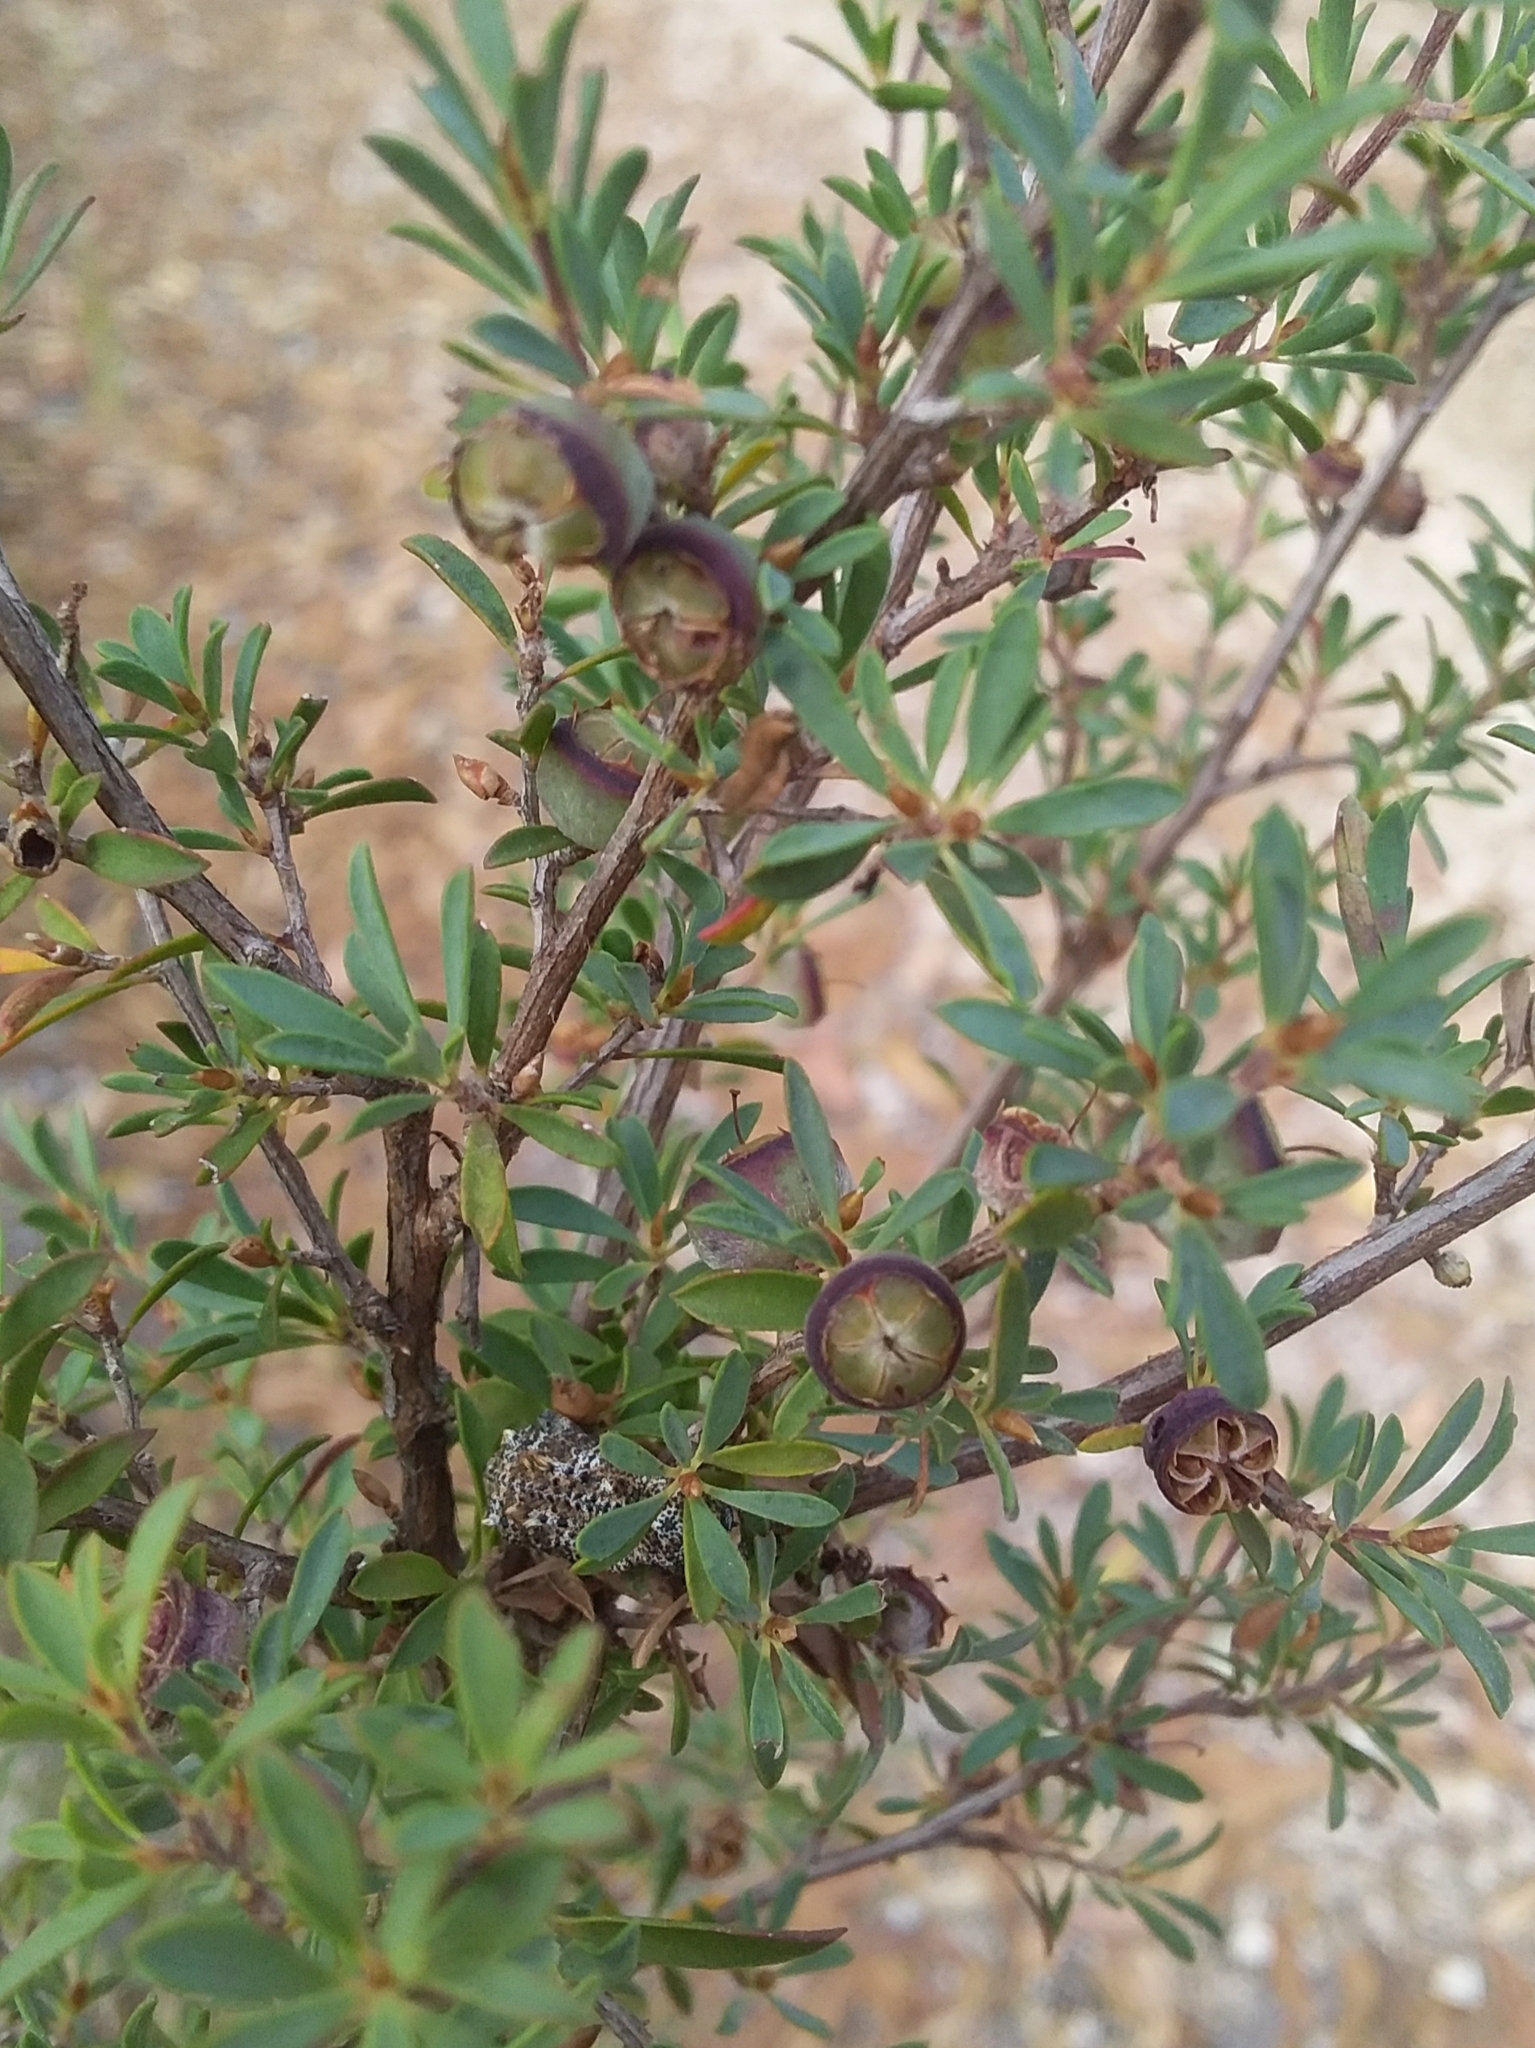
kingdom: Plantae
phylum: Tracheophyta
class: Magnoliopsida
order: Myrtales
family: Myrtaceae
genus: Leptospermum
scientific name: Leptospermum myrsinoides
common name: Heath teatree
